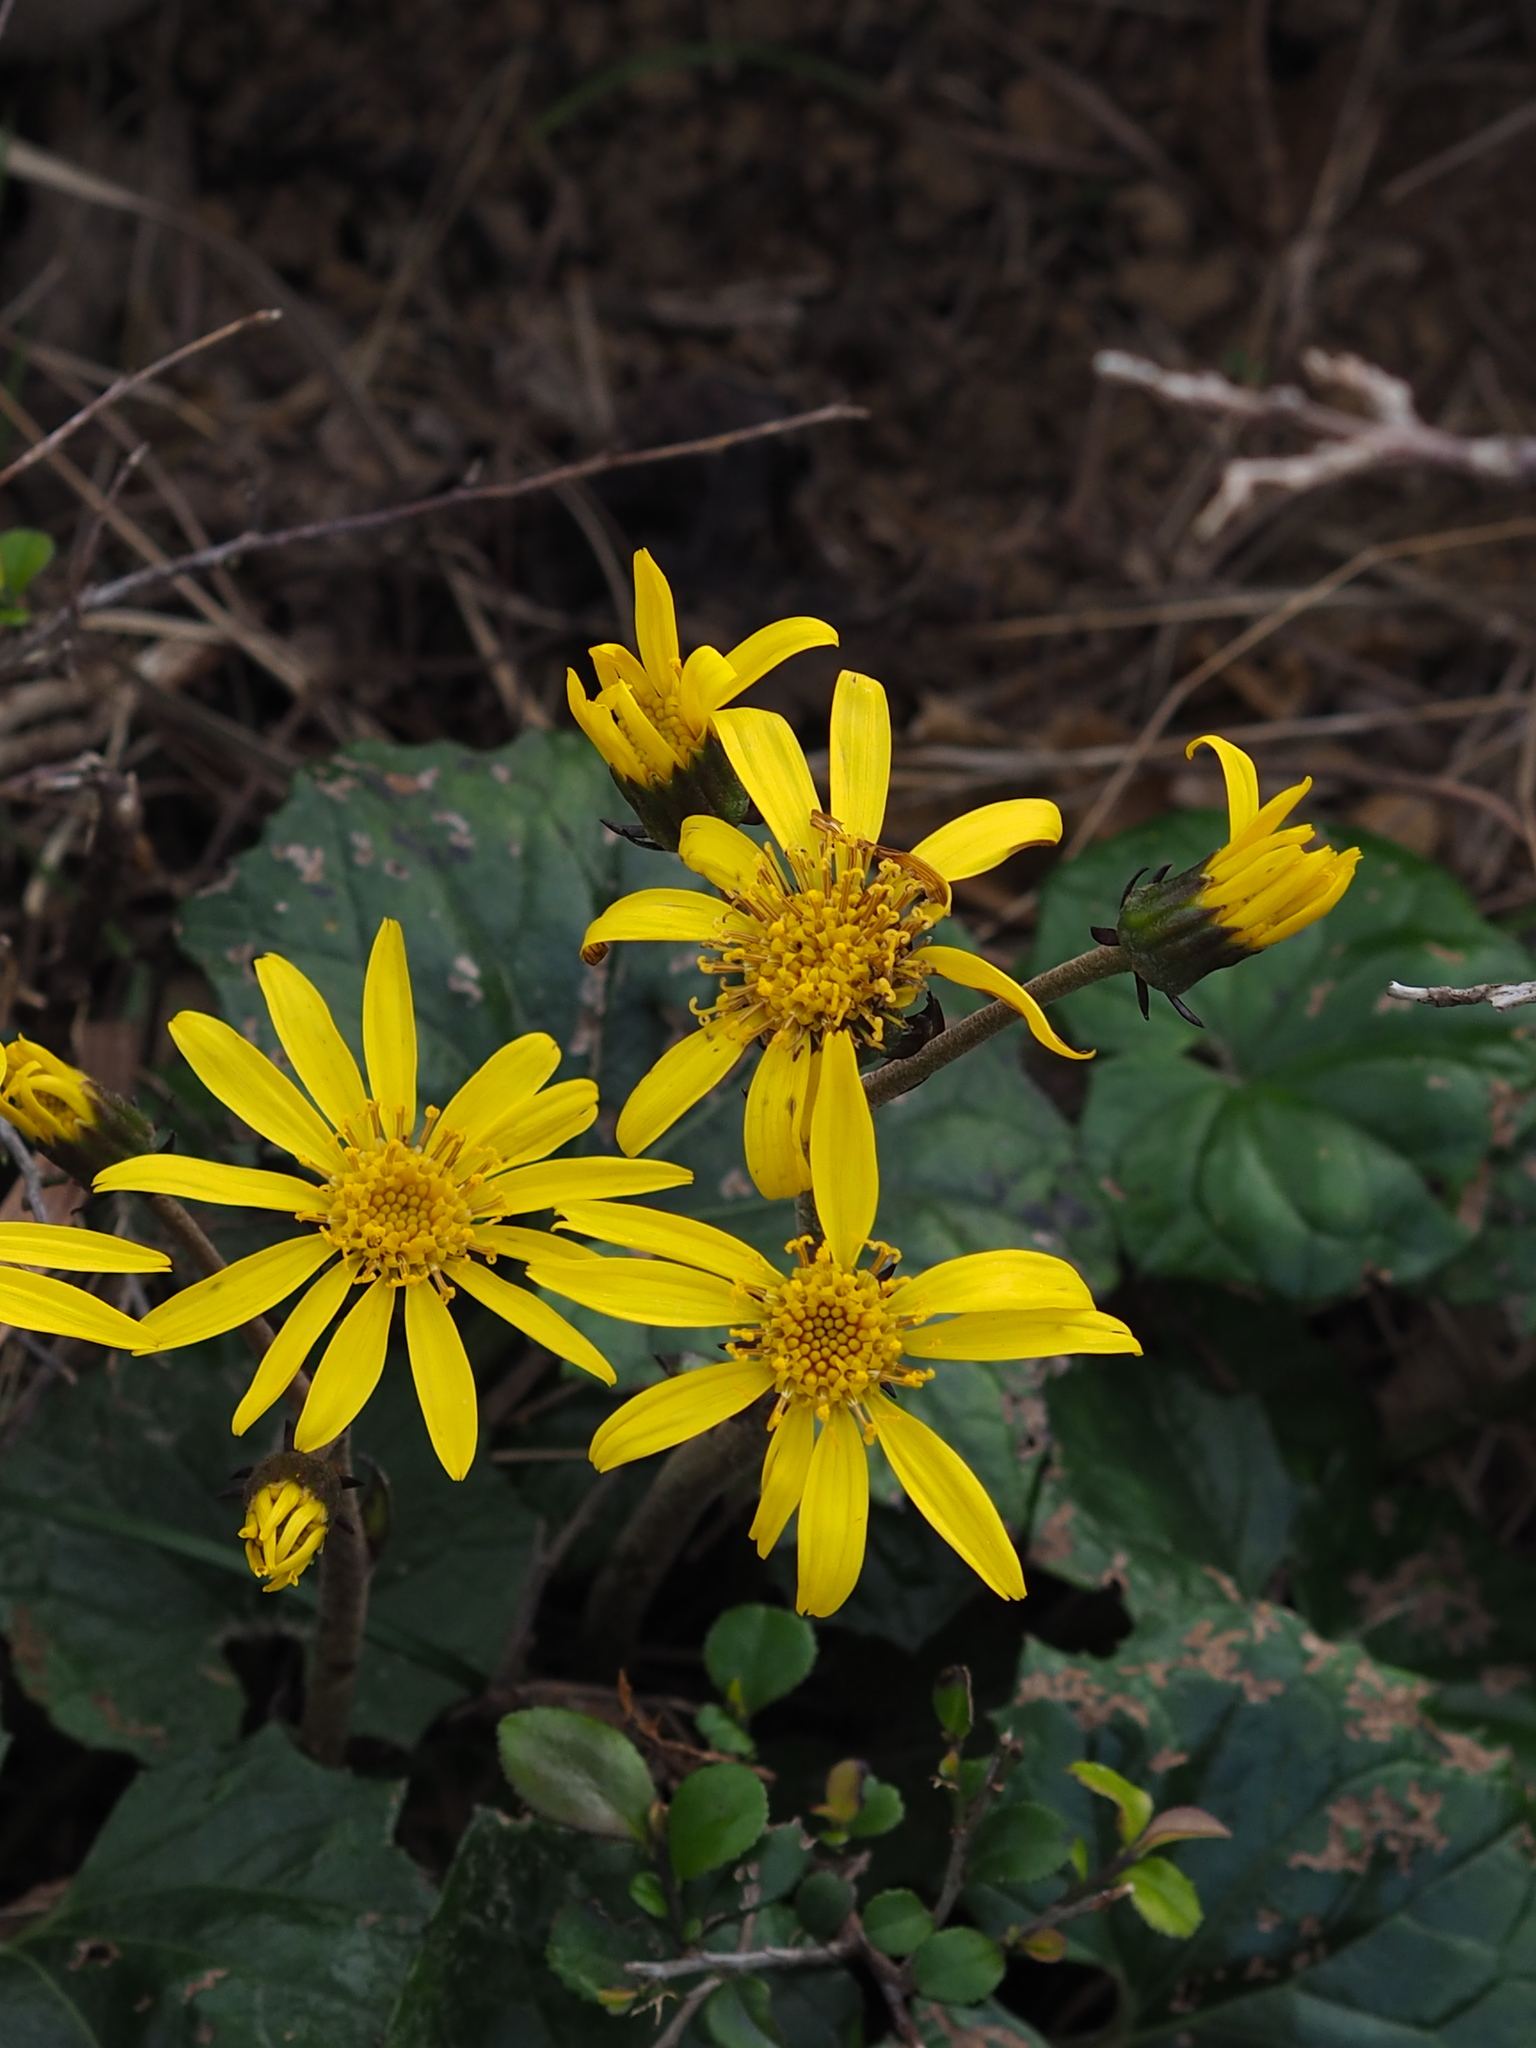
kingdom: Plantae
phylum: Tracheophyta
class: Magnoliopsida
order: Asterales
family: Asteraceae
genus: Farfugium
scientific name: Farfugium japonicum
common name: Leopardplant
